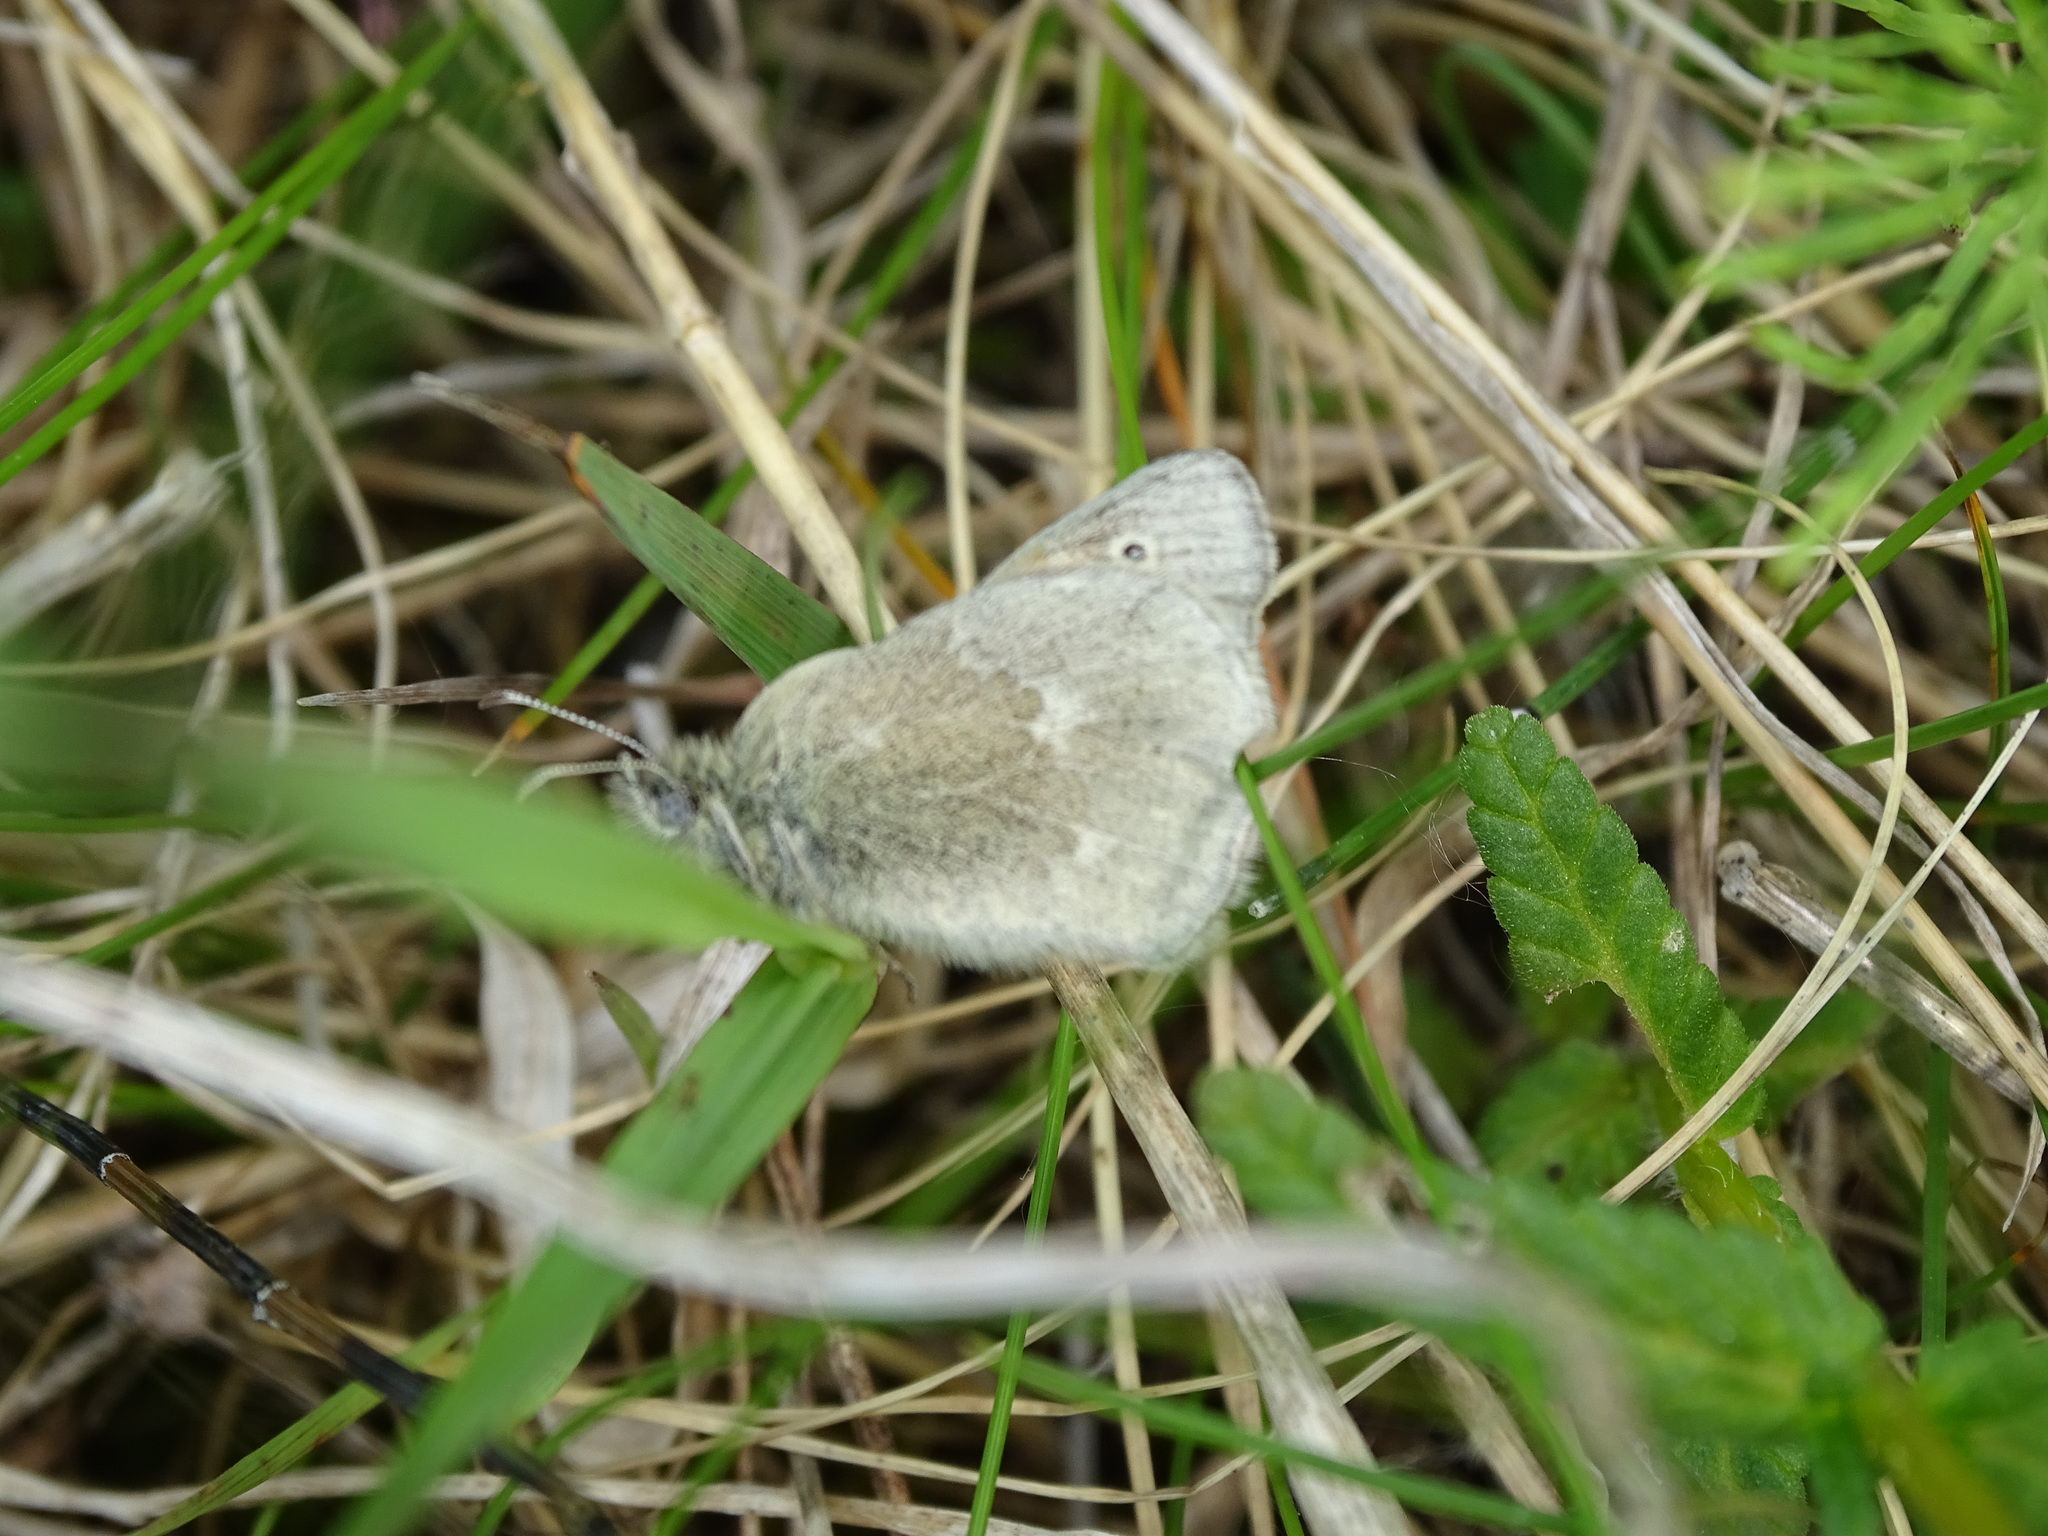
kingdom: Animalia
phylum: Arthropoda
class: Insecta
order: Lepidoptera
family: Nymphalidae
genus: Coenonympha
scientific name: Coenonympha california
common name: Common ringlet
